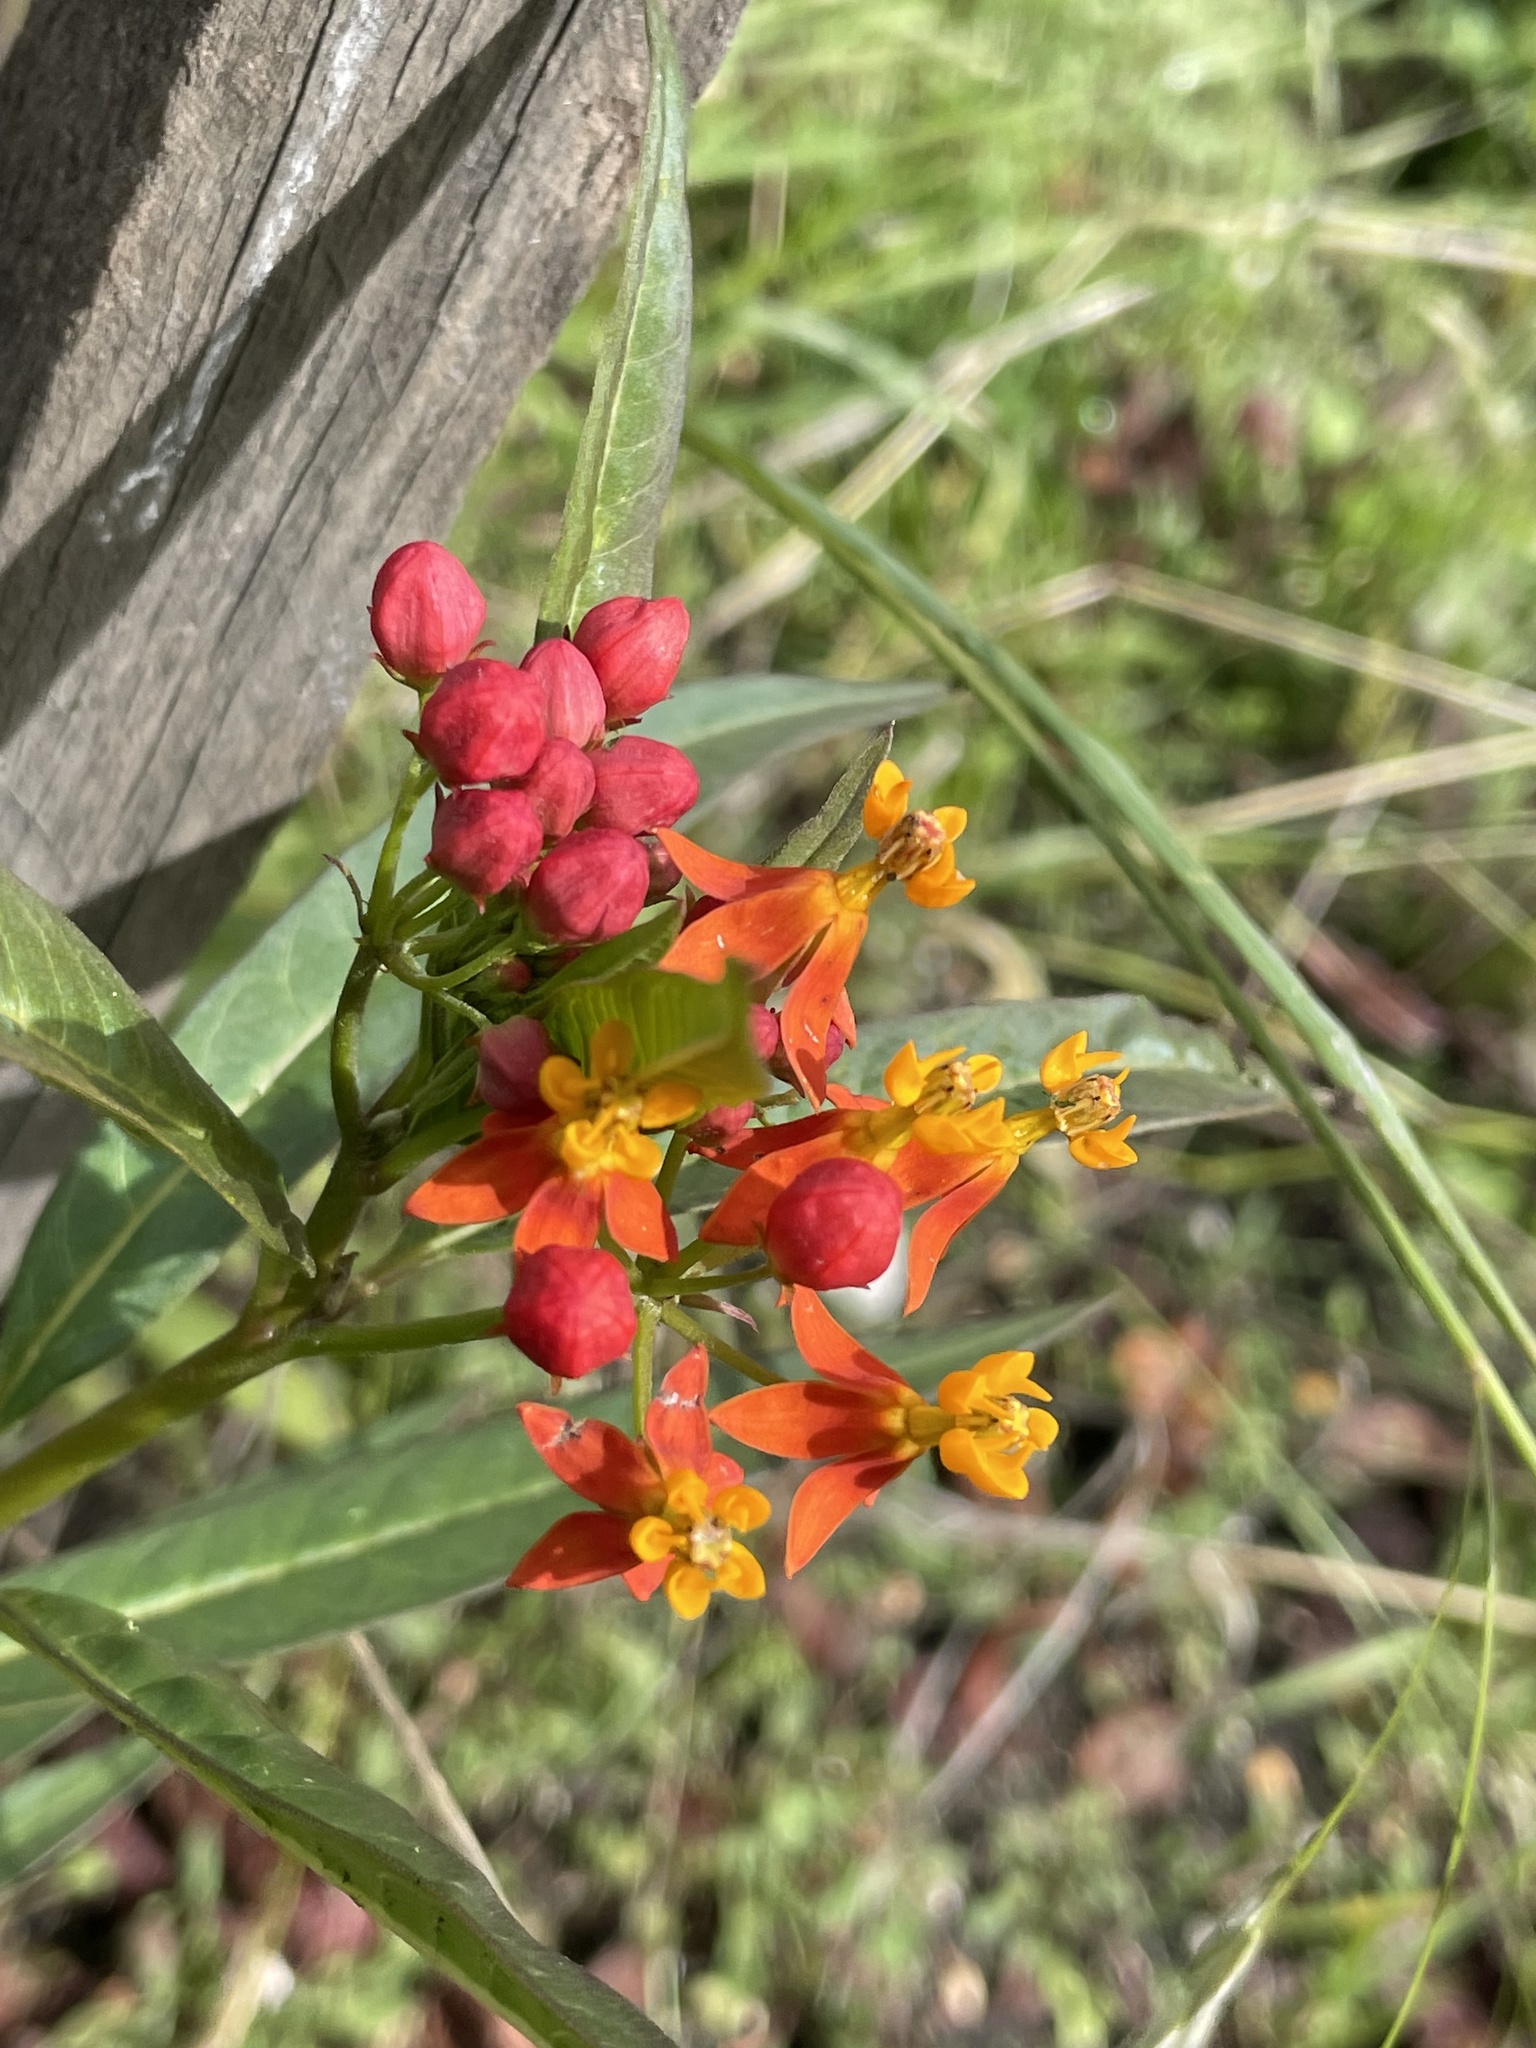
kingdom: Plantae
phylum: Tracheophyta
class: Magnoliopsida
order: Gentianales
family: Apocynaceae
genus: Asclepias
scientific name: Asclepias curassavica
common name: Bloodflower
